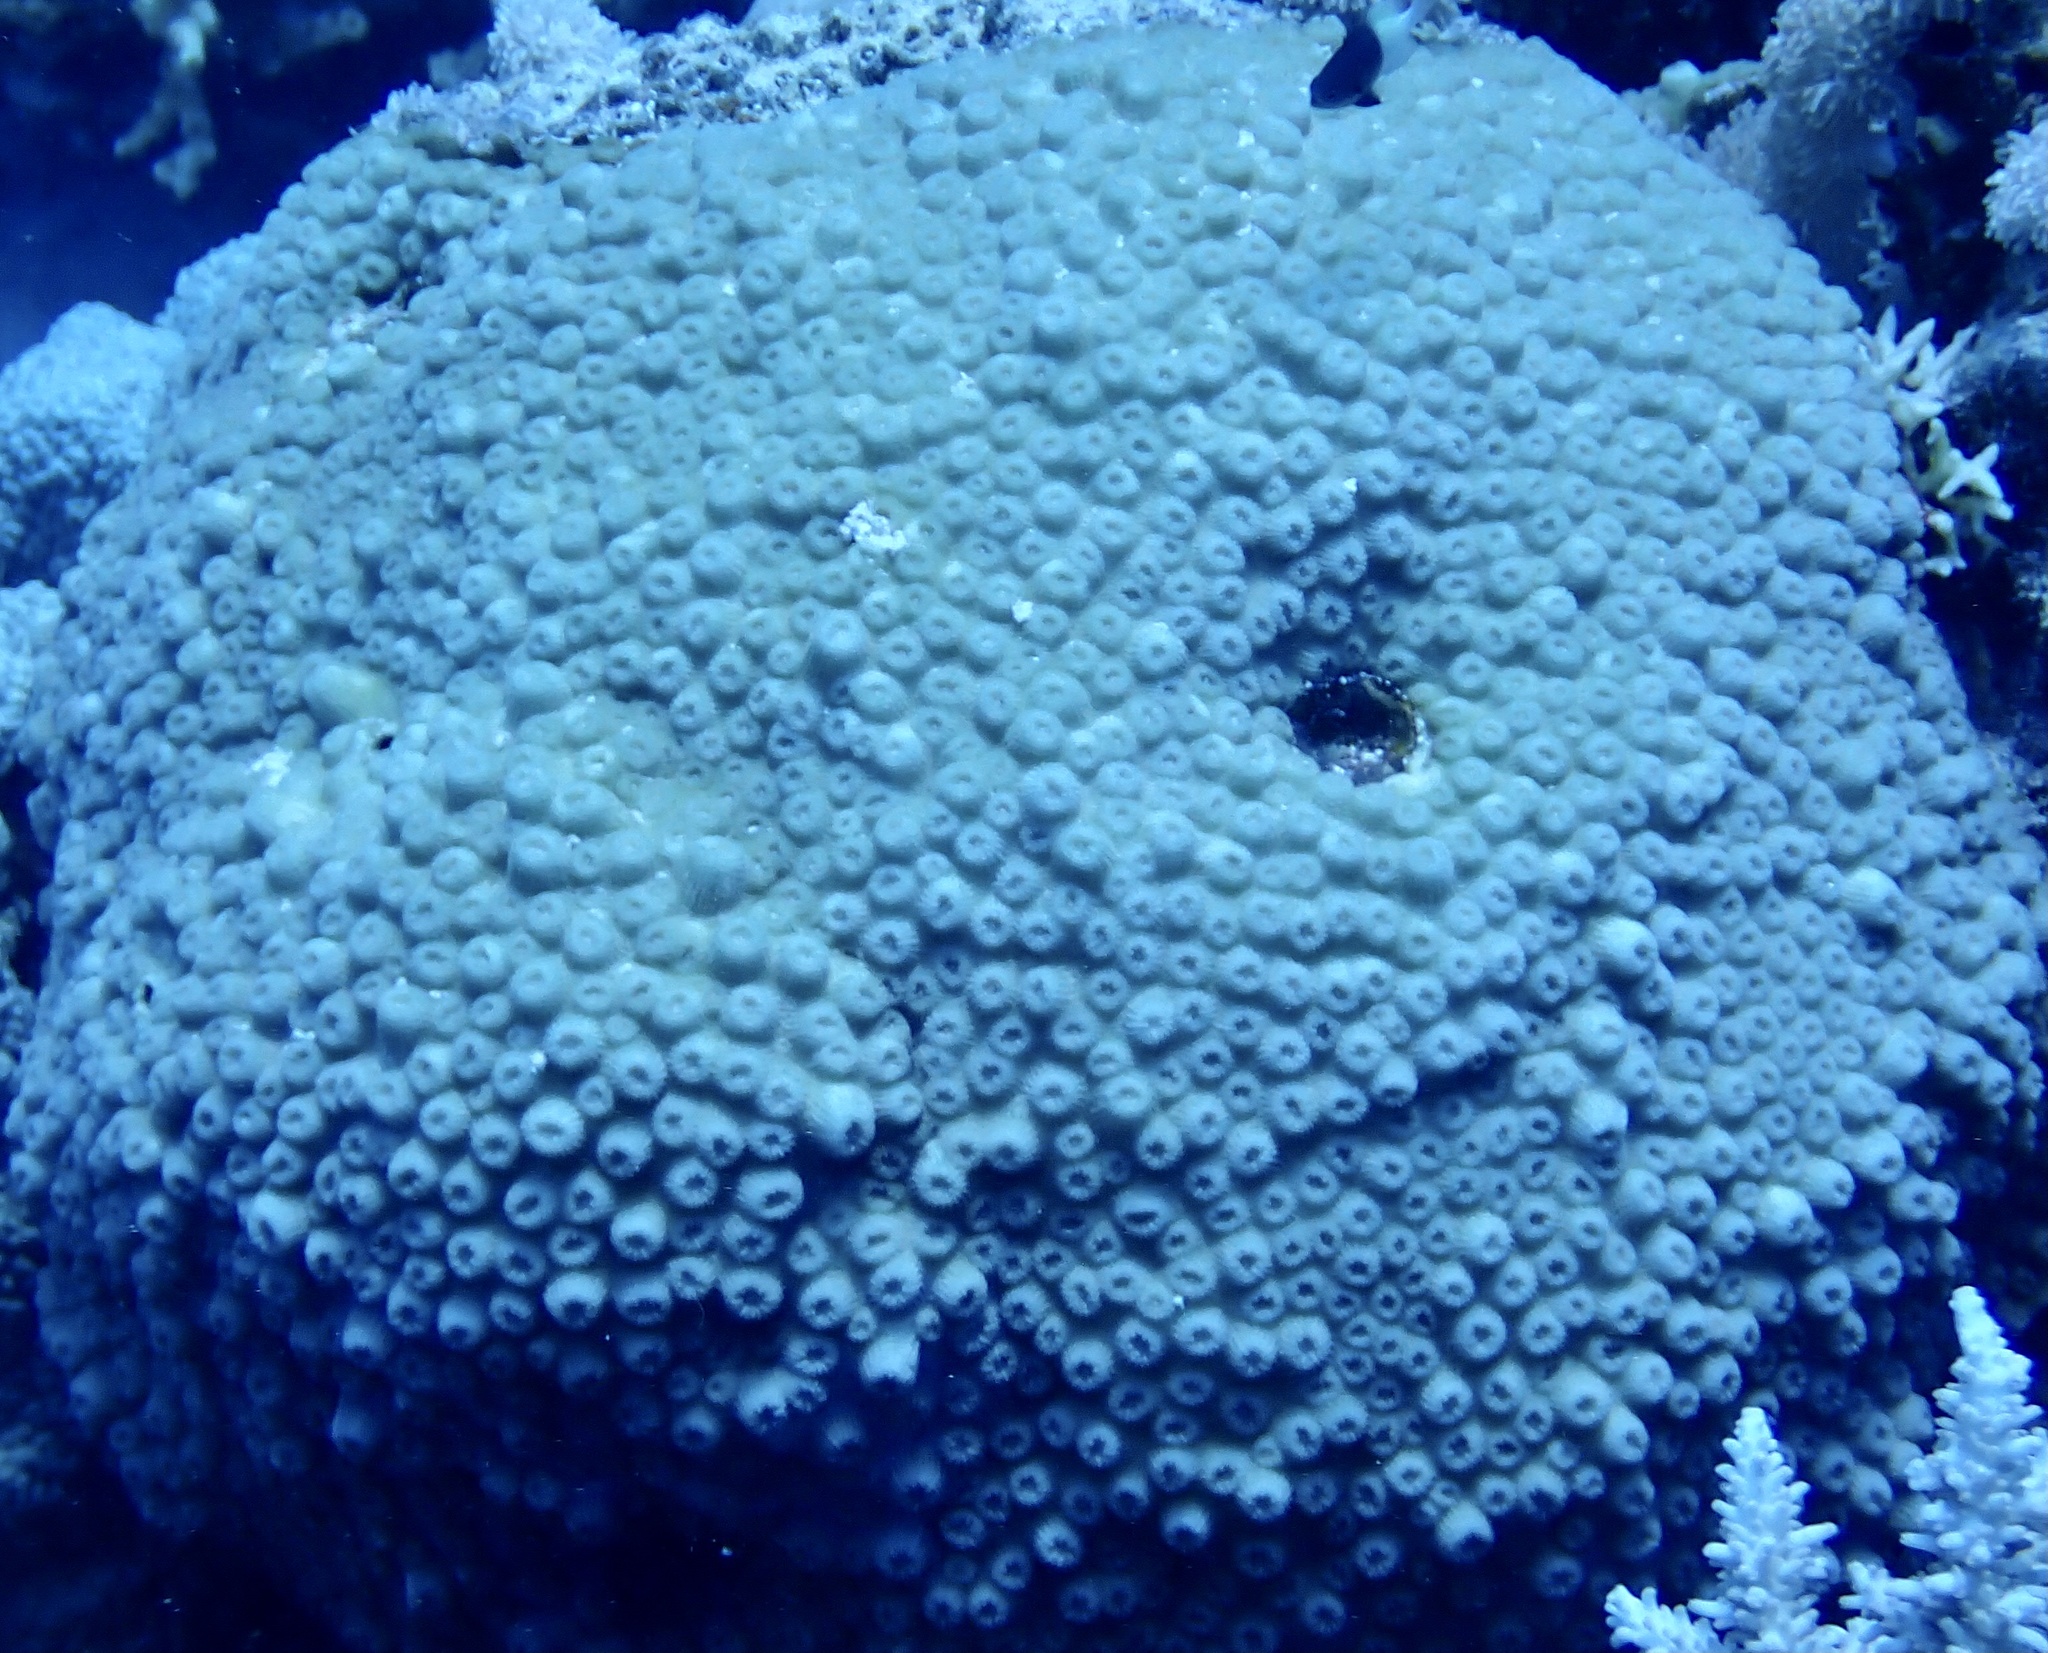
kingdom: Animalia
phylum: Cnidaria
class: Anthozoa
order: Scleractinia
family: Merulinidae
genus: Echinopora
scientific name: Echinopora forskaliana
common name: Hedgehog coral
